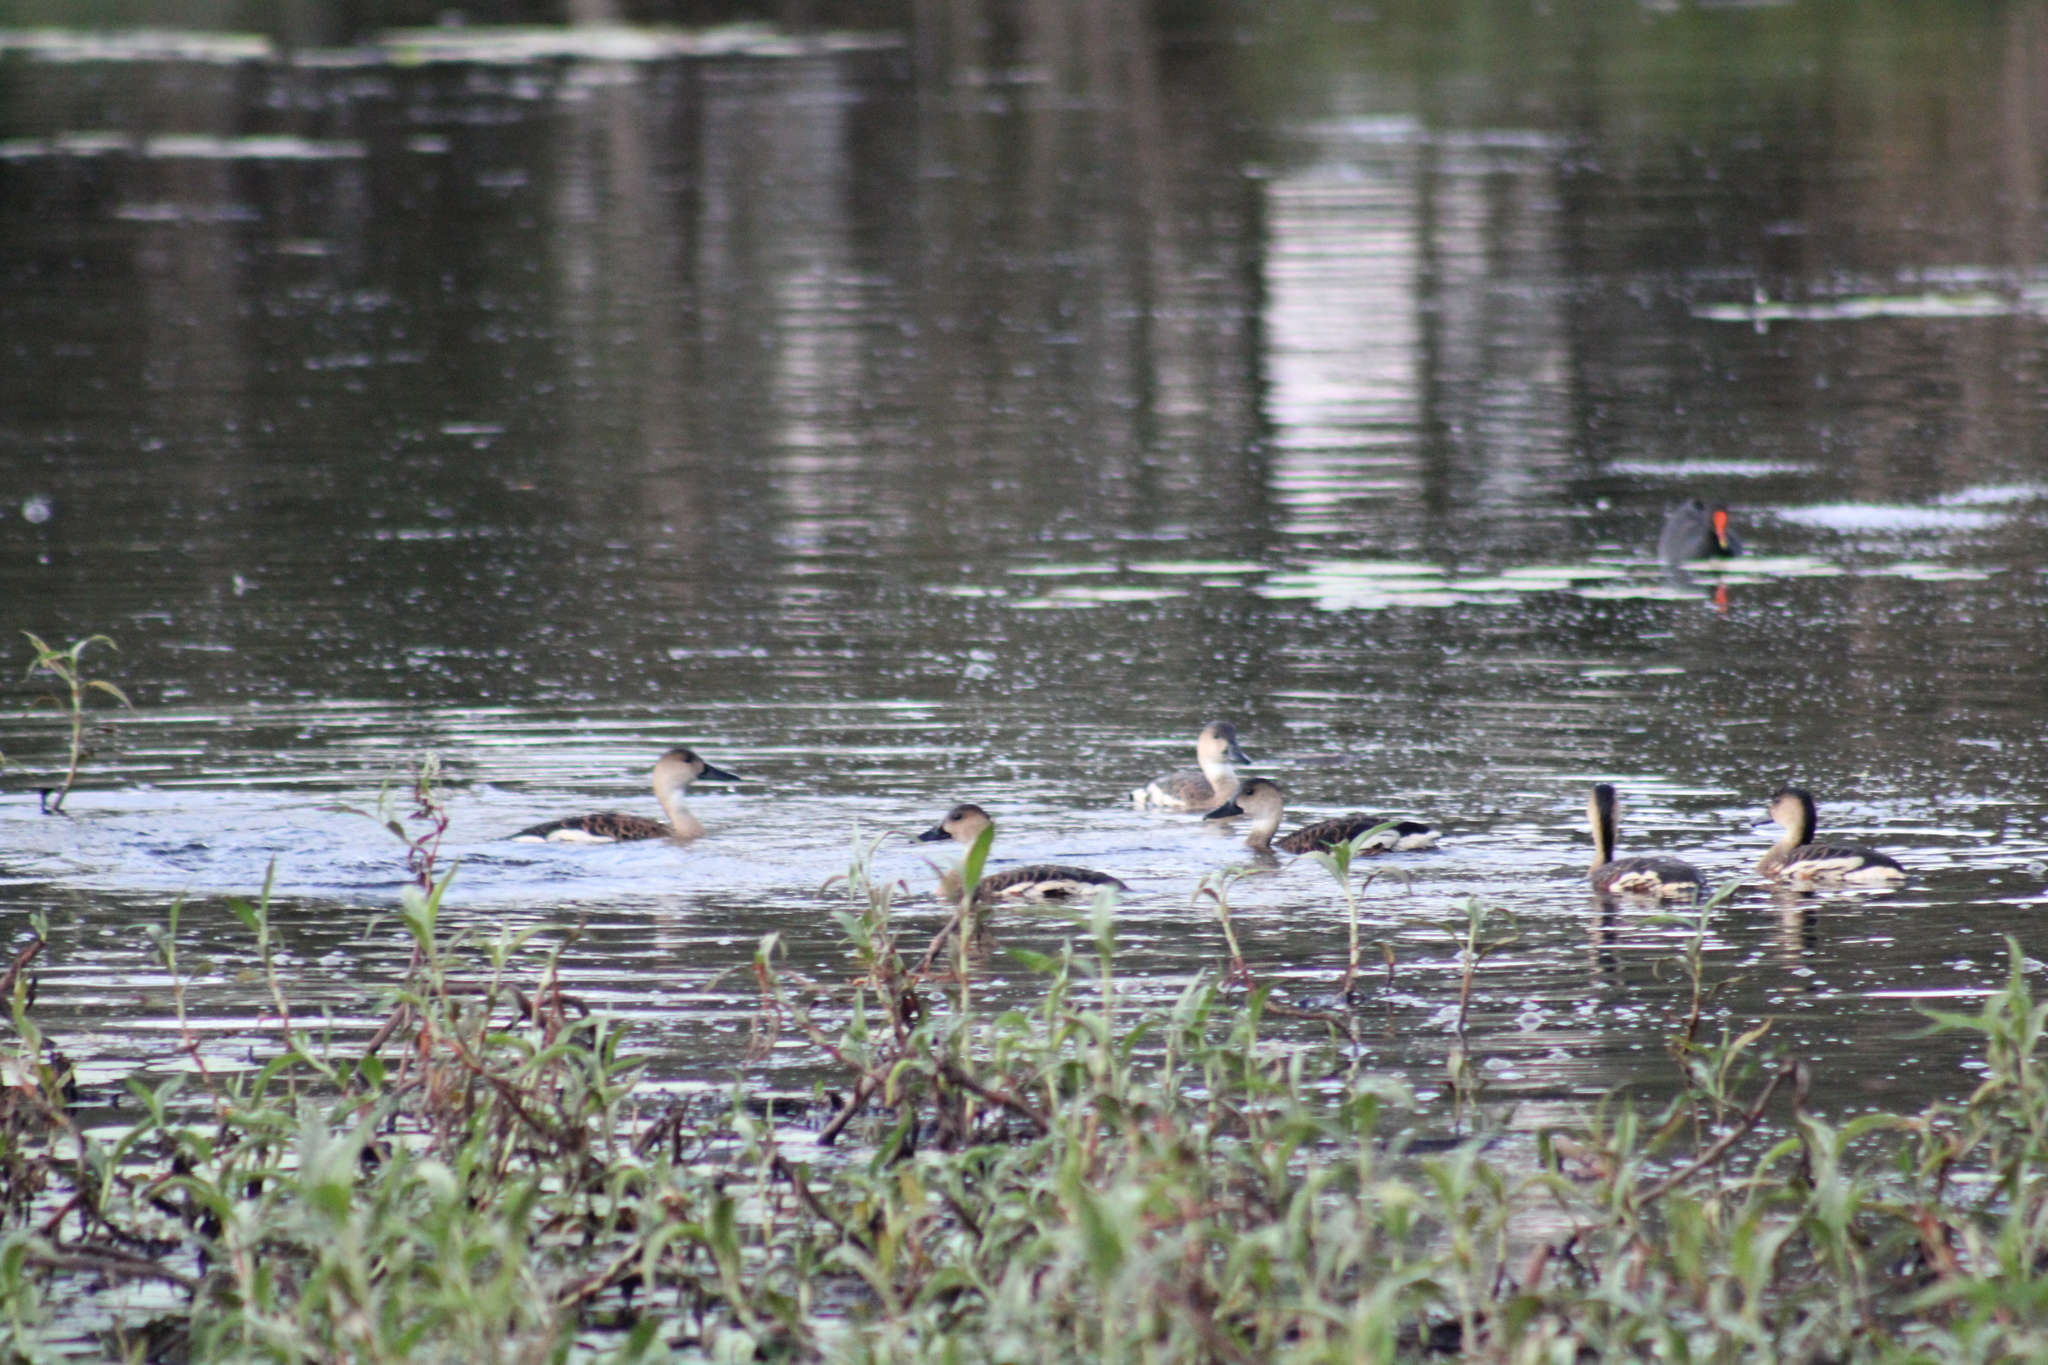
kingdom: Animalia
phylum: Chordata
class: Aves
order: Anseriformes
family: Anatidae
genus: Dendrocygna
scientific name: Dendrocygna arcuata
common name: Wandering whistling-duck
